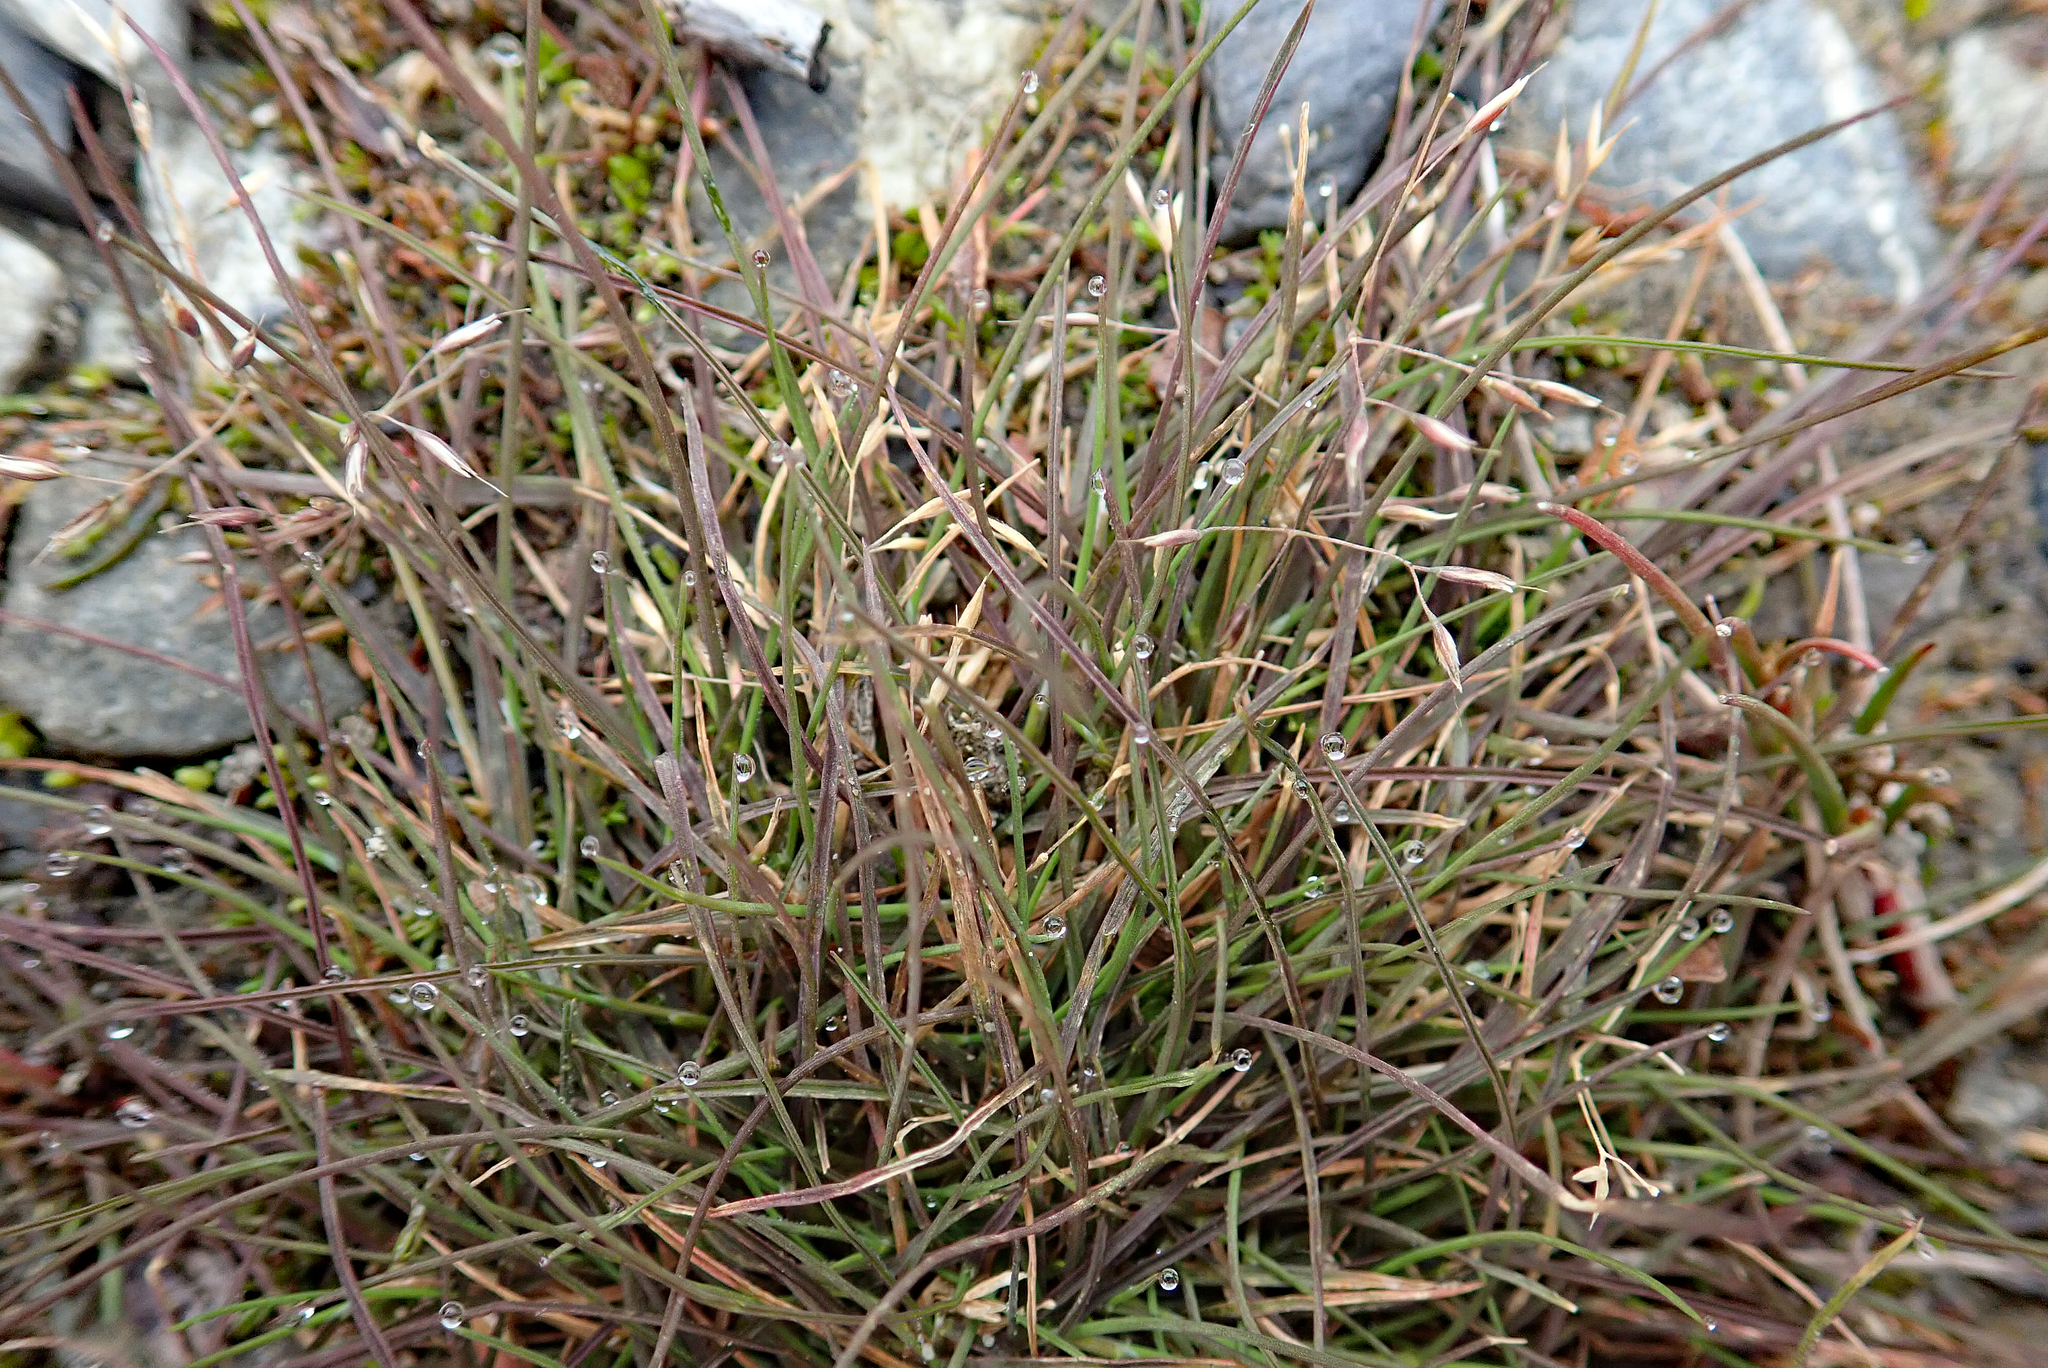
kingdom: Plantae
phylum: Tracheophyta
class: Liliopsida
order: Poales
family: Poaceae
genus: Lachnagrostis
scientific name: Lachnagrostis striata
